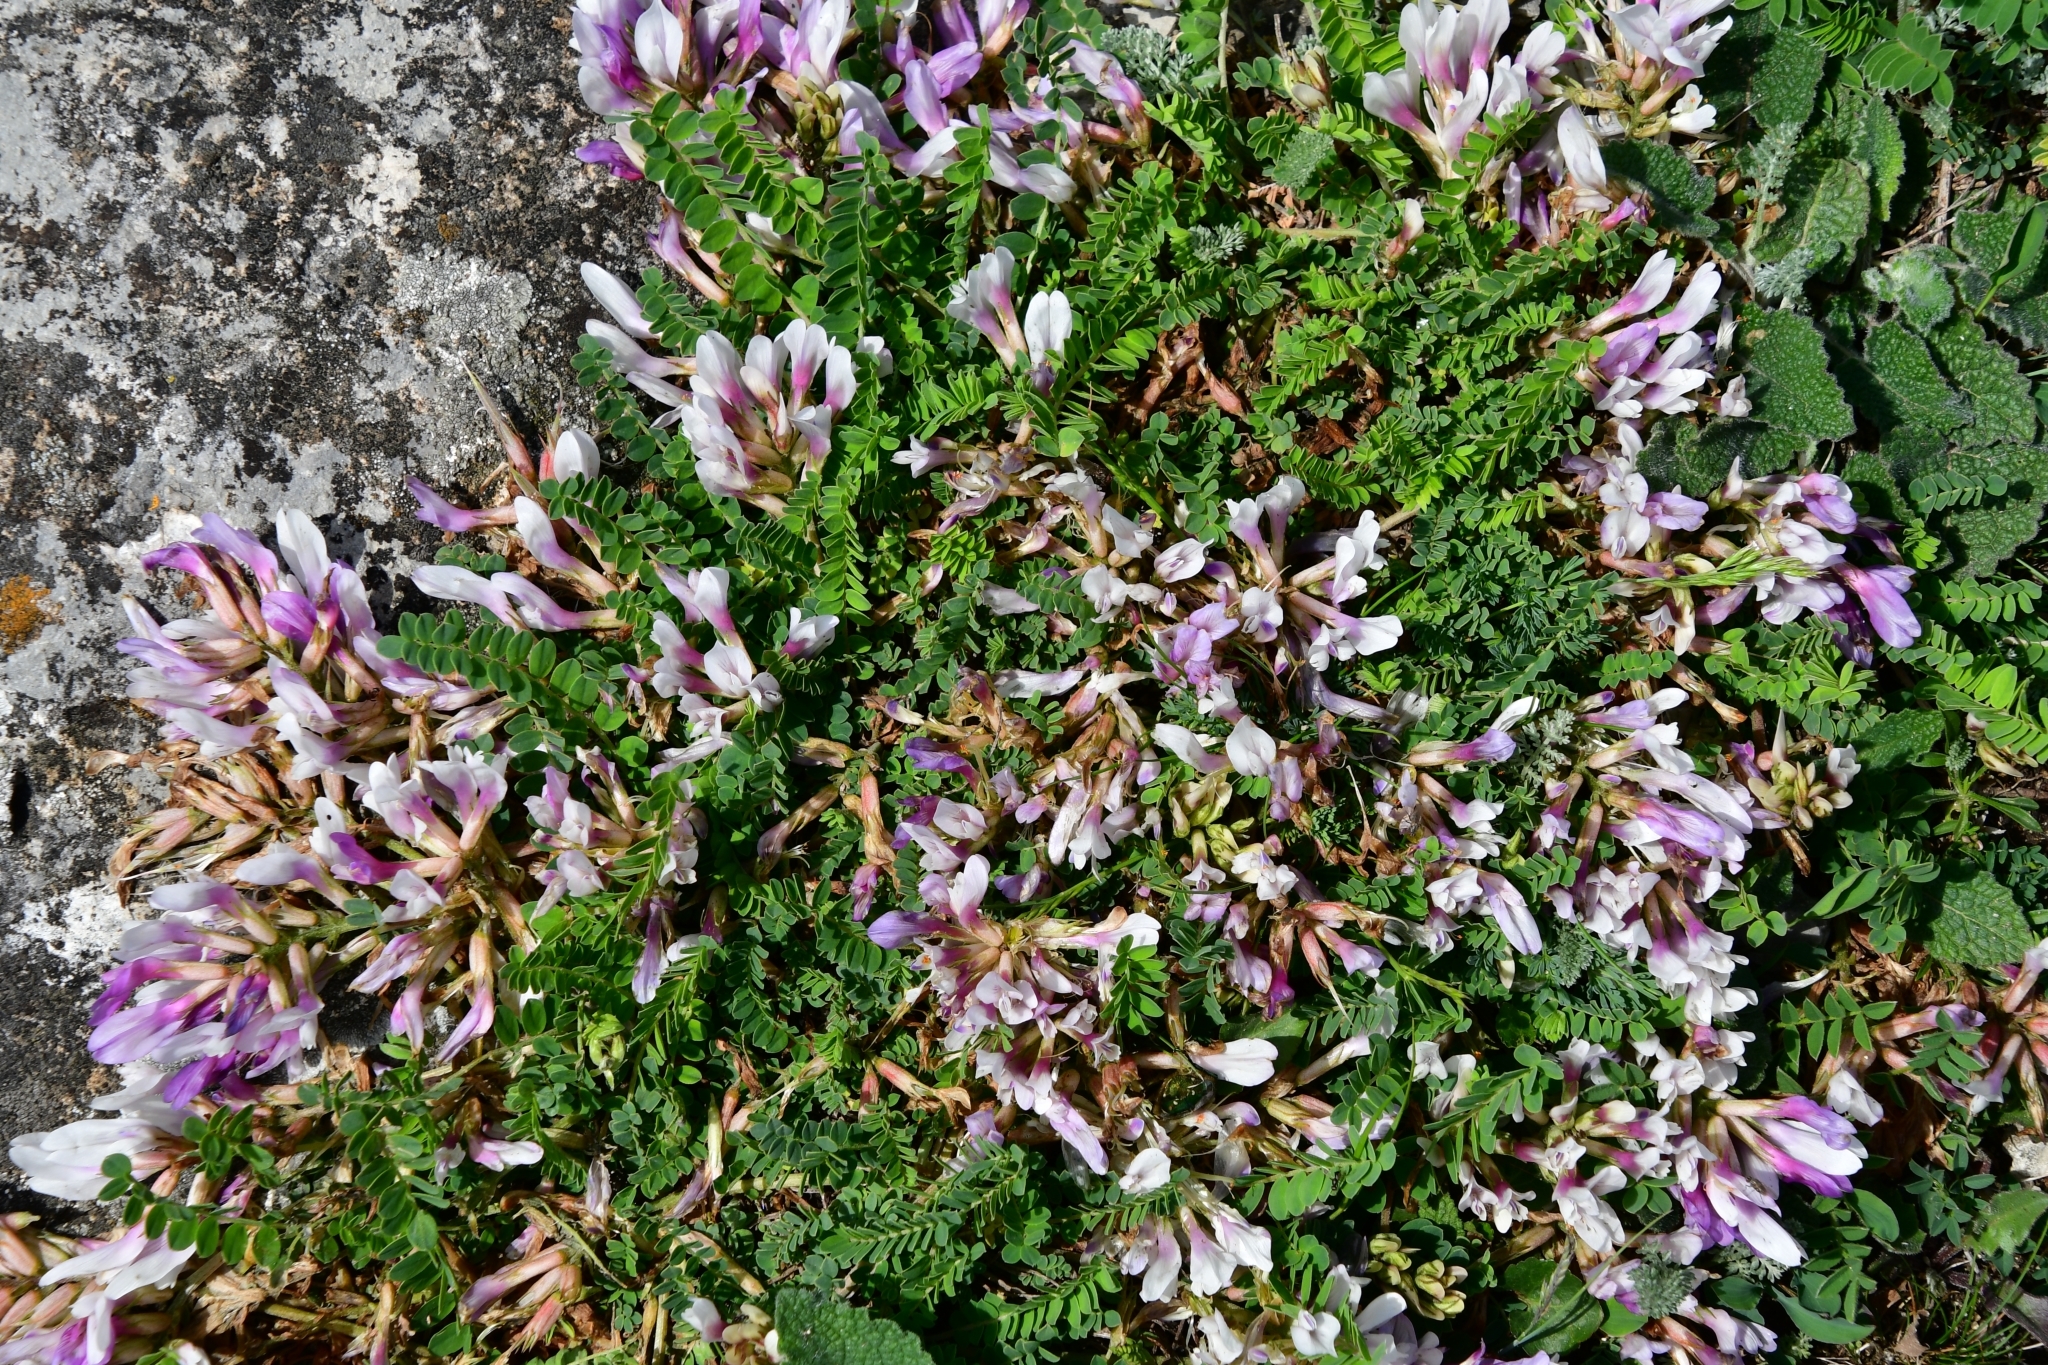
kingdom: Plantae
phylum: Tracheophyta
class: Magnoliopsida
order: Fabales
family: Fabaceae
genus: Astragalus
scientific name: Astragalus levieri
